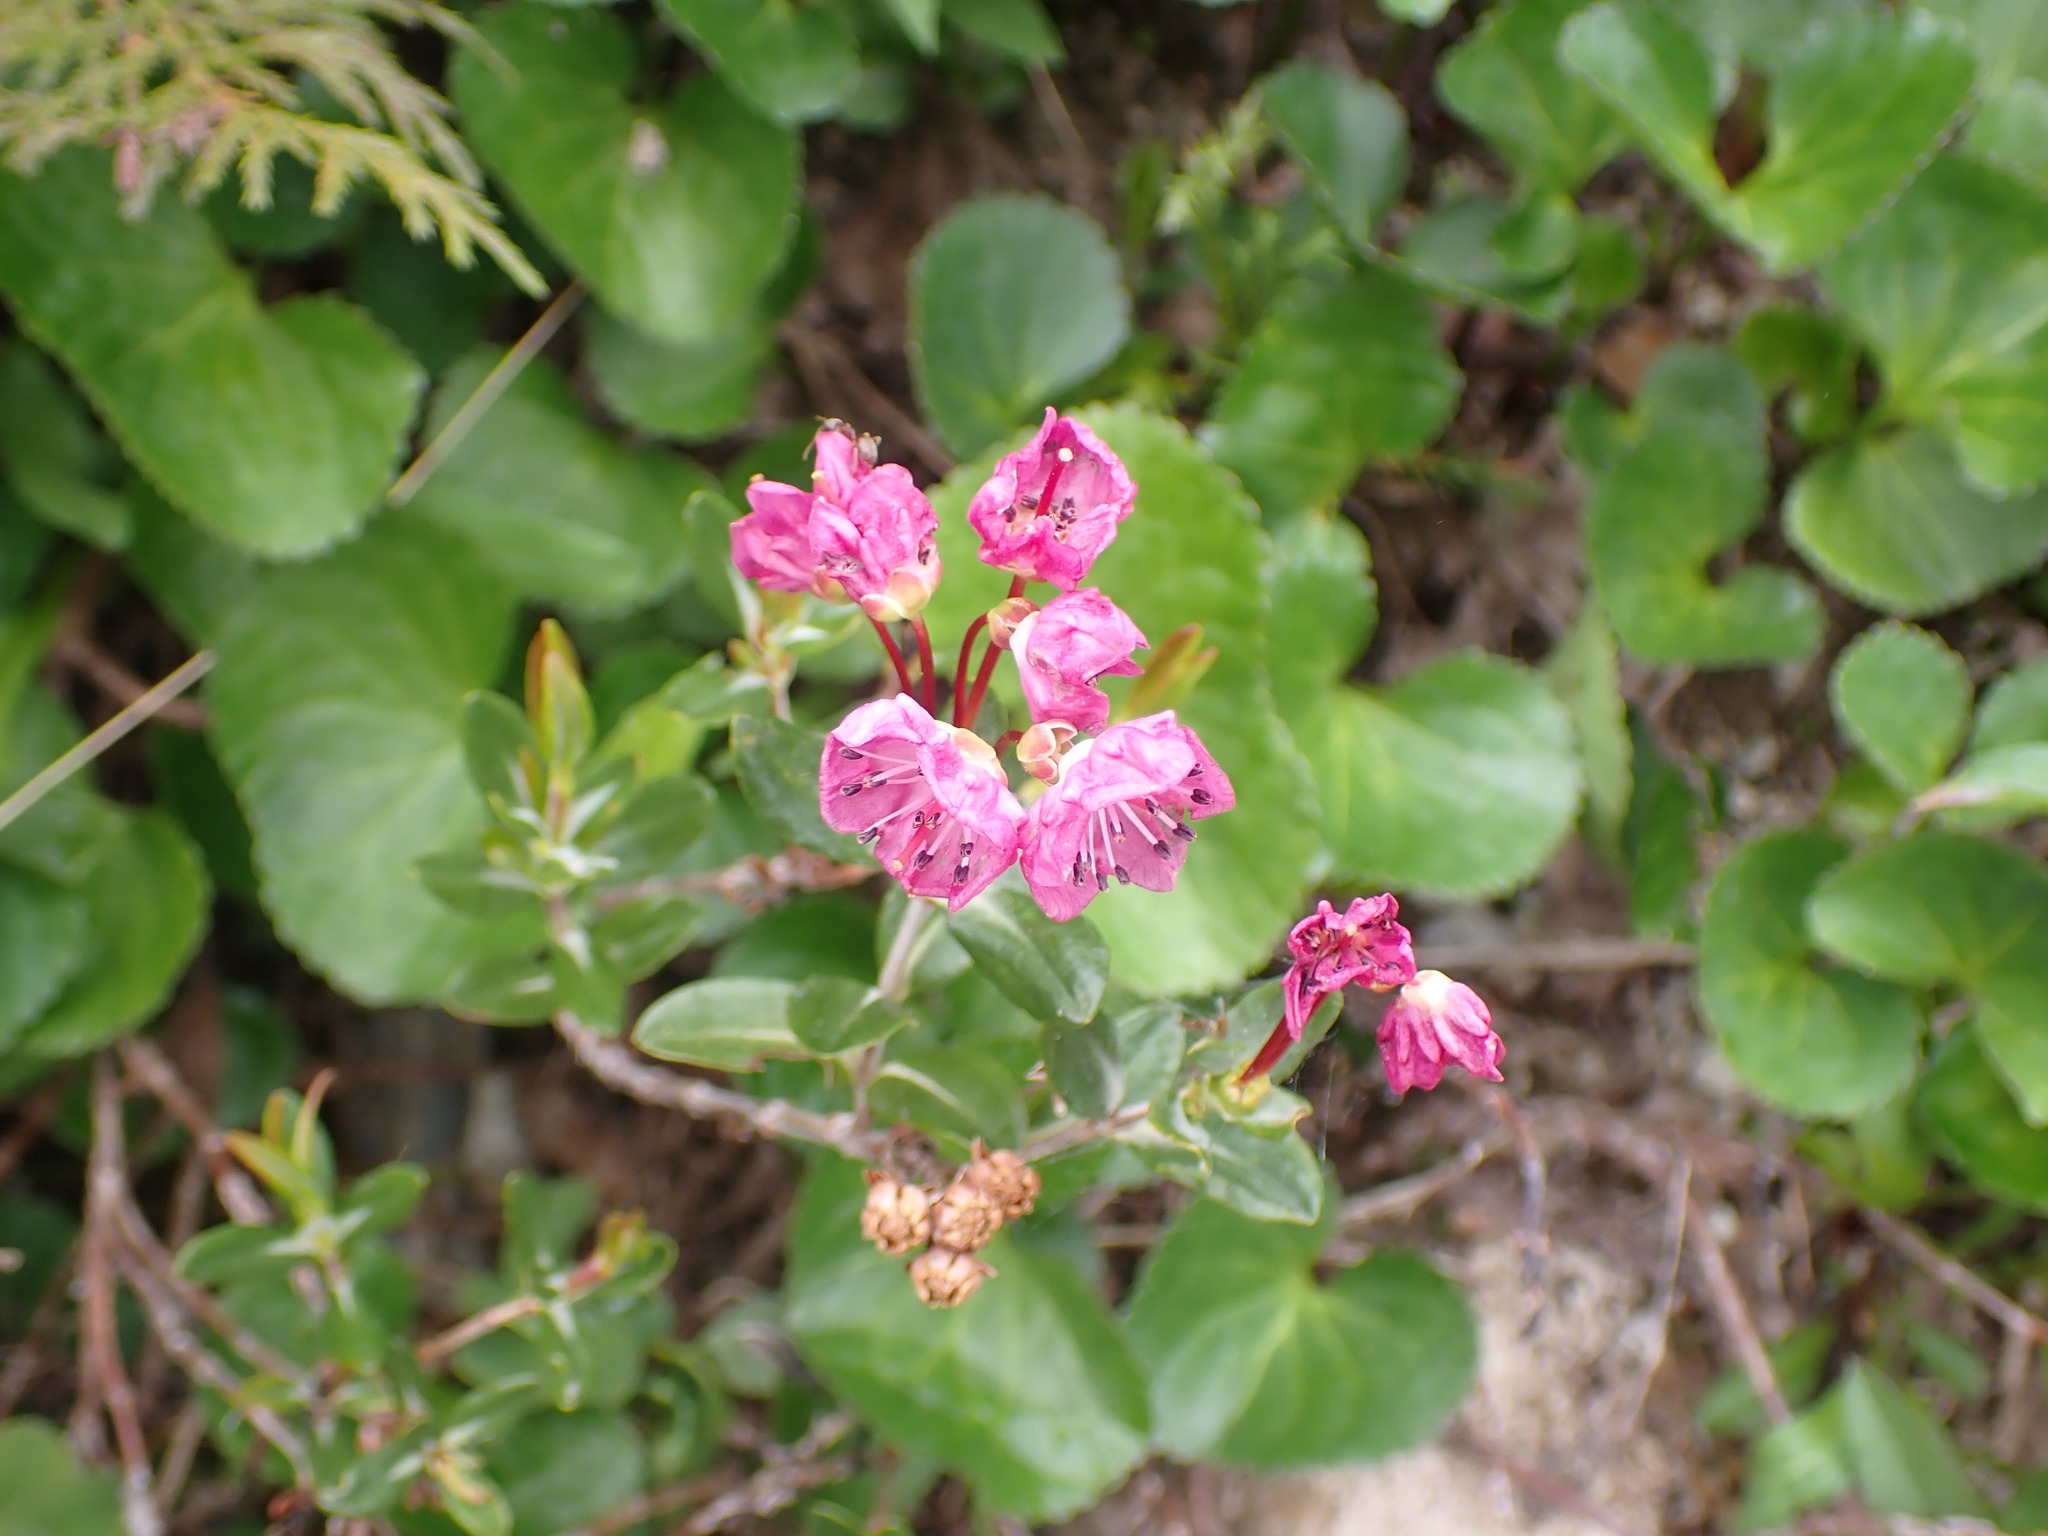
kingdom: Plantae
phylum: Tracheophyta
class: Magnoliopsida
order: Ericales
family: Ericaceae
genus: Kalmia
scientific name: Kalmia microphylla
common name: Alpine bog laurel
